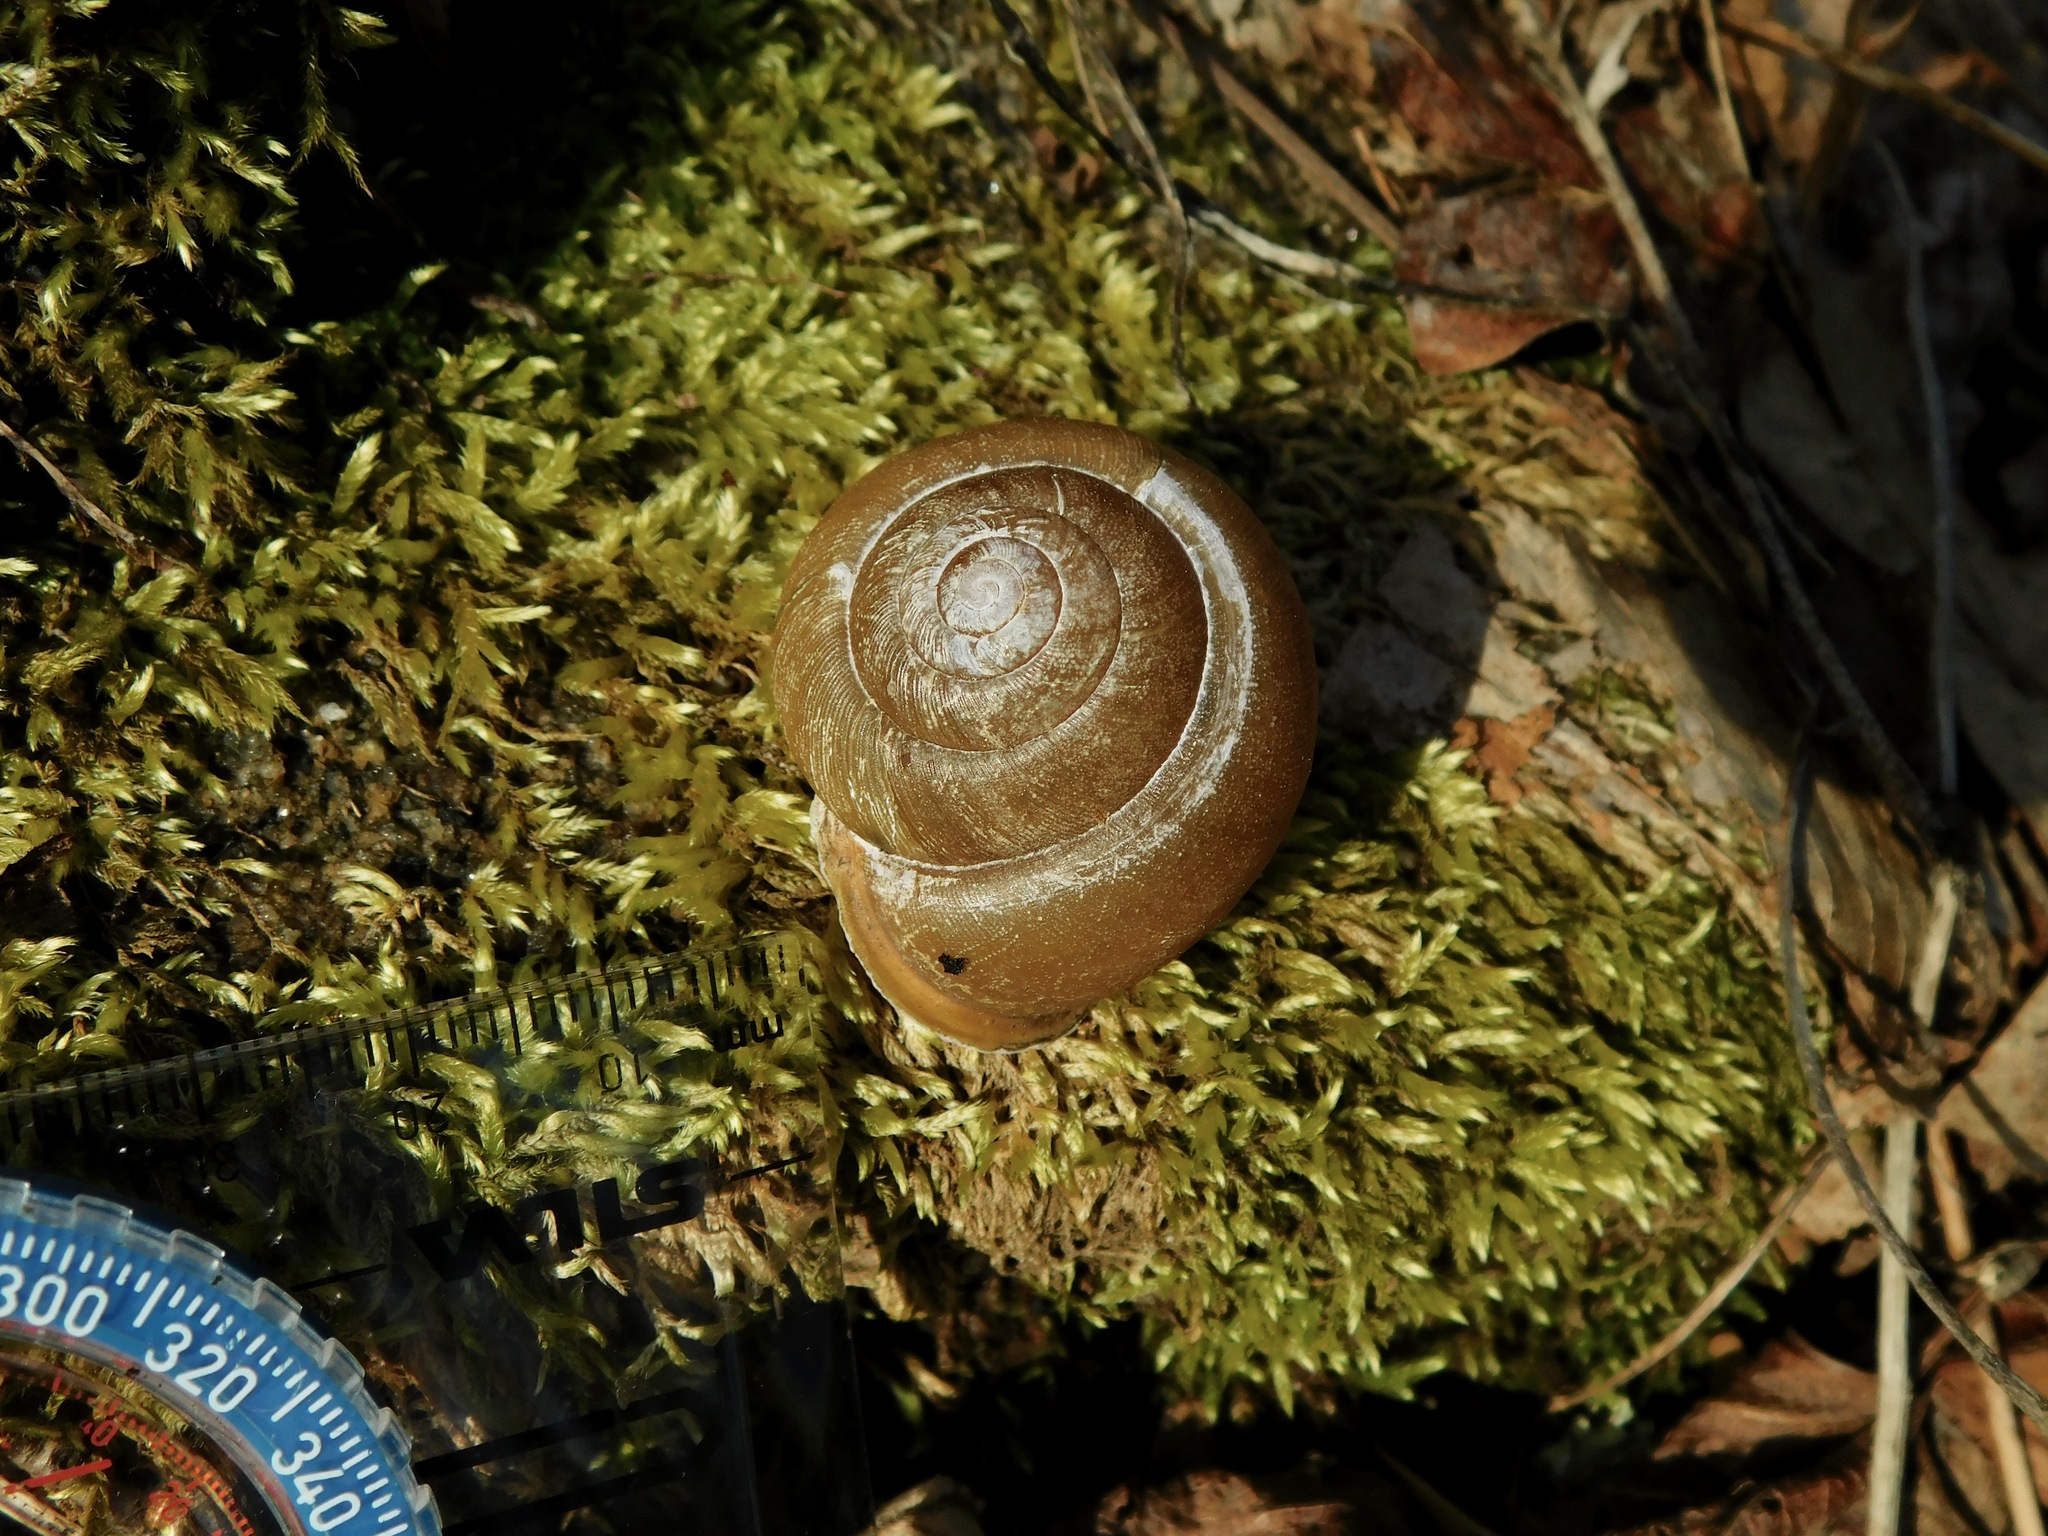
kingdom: Animalia
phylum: Mollusca
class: Gastropoda
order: Stylommatophora
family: Polygyridae
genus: Neohelix
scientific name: Neohelix major
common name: Southeastern whitelip
